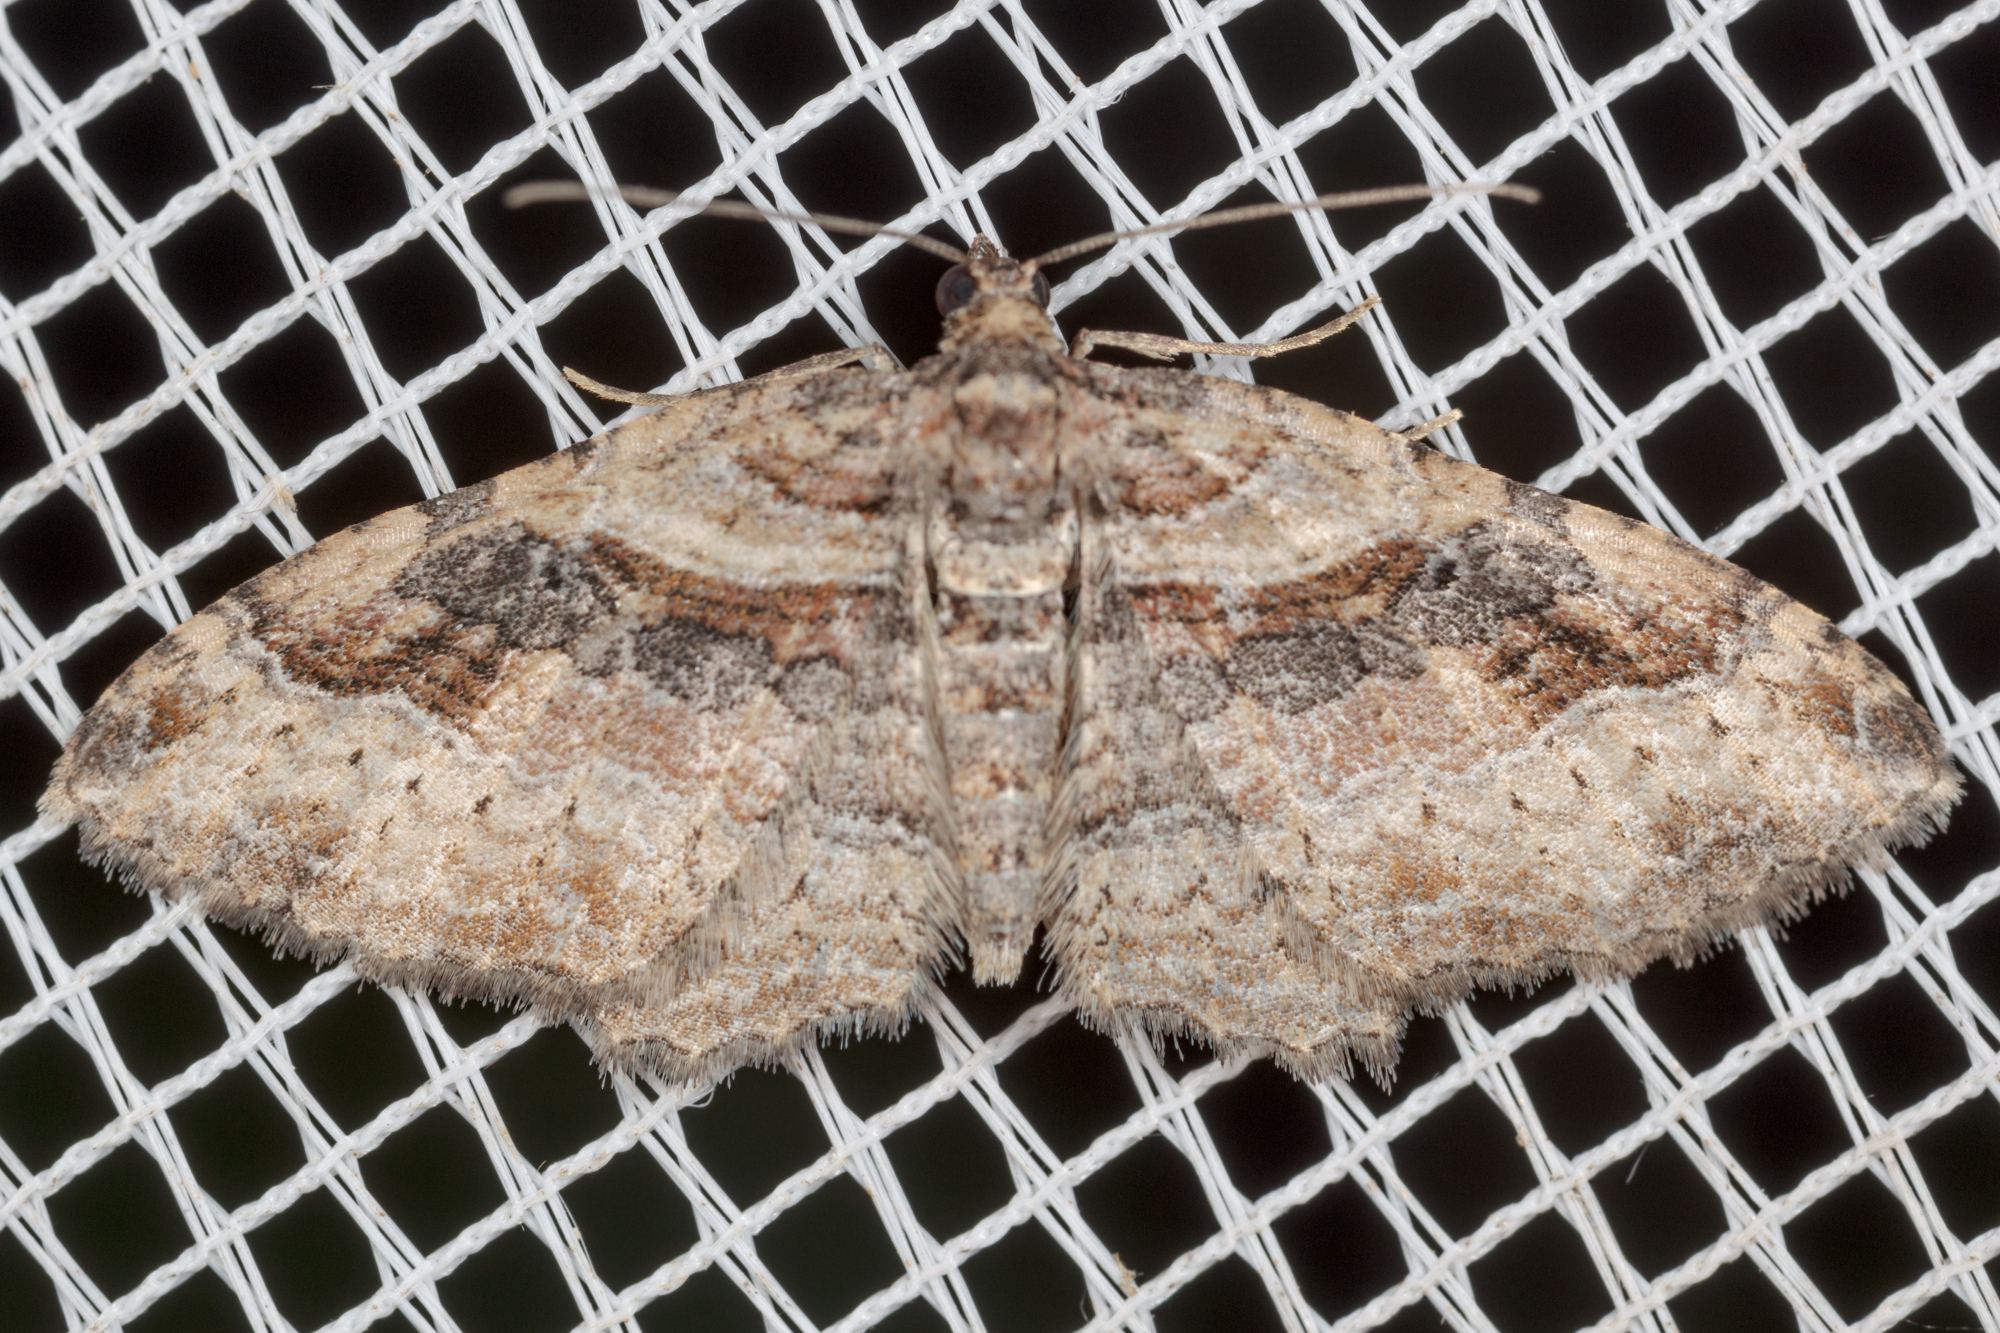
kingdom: Animalia
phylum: Arthropoda
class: Insecta
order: Lepidoptera
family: Geometridae
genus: Costaconvexa
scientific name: Costaconvexa centrostrigaria
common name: Bent-line carpet
